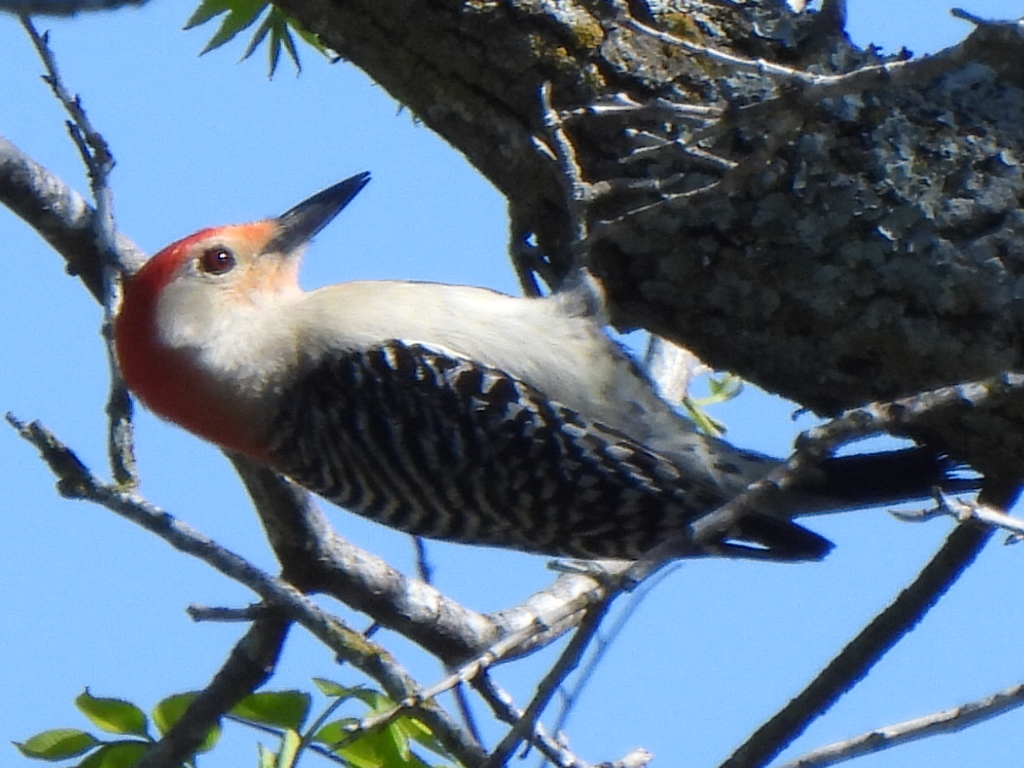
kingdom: Animalia
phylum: Chordata
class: Aves
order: Piciformes
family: Picidae
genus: Melanerpes
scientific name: Melanerpes carolinus
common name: Red-bellied woodpecker
